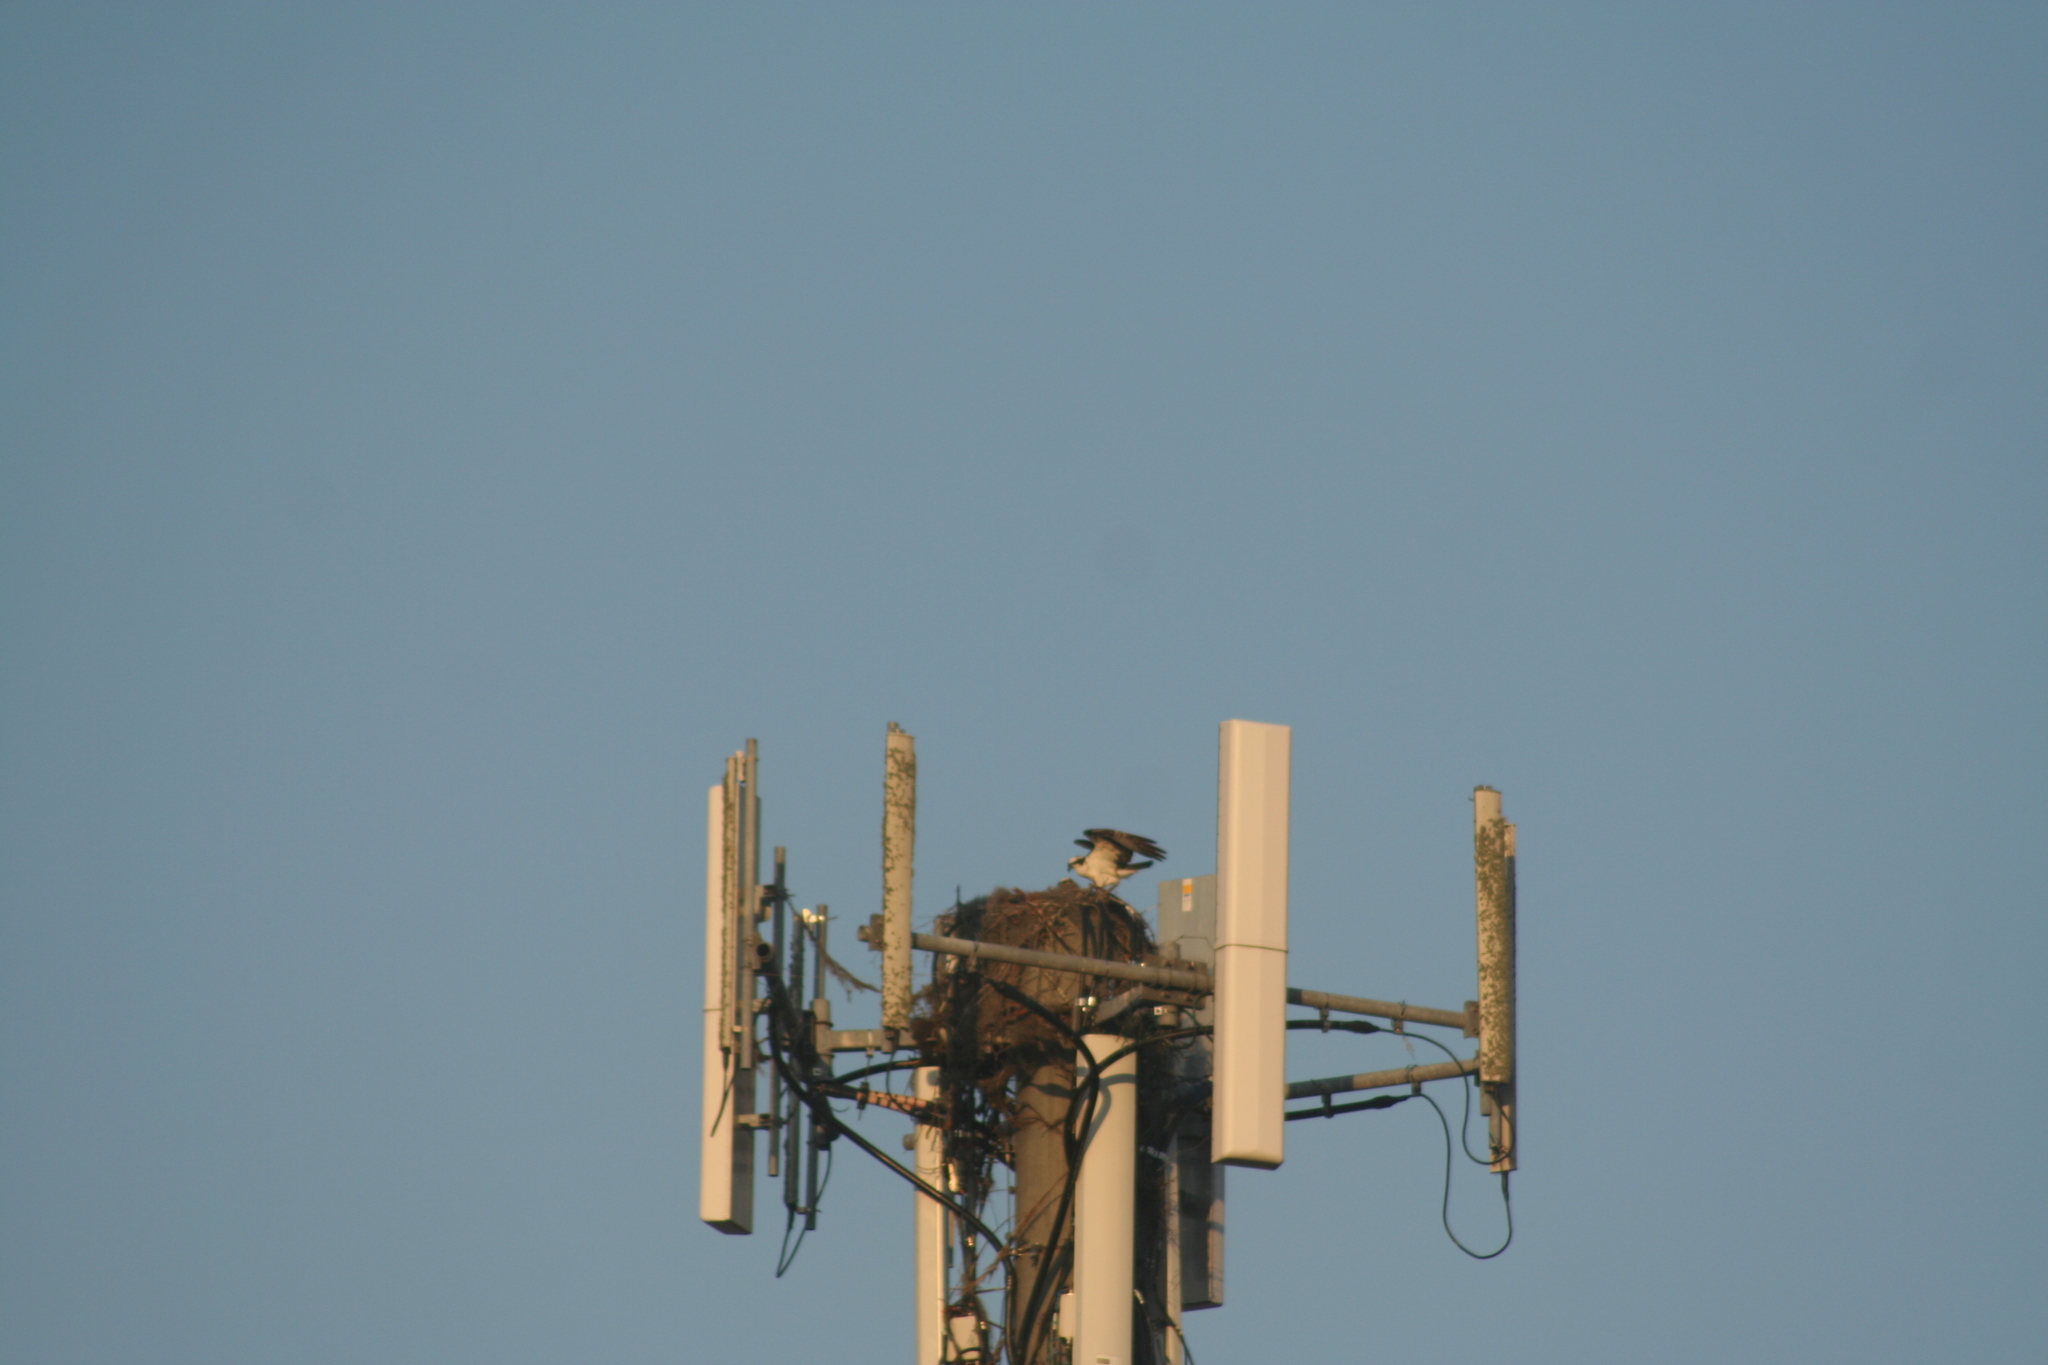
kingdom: Animalia
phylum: Chordata
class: Aves
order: Accipitriformes
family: Pandionidae
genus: Pandion
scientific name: Pandion haliaetus
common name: Osprey
